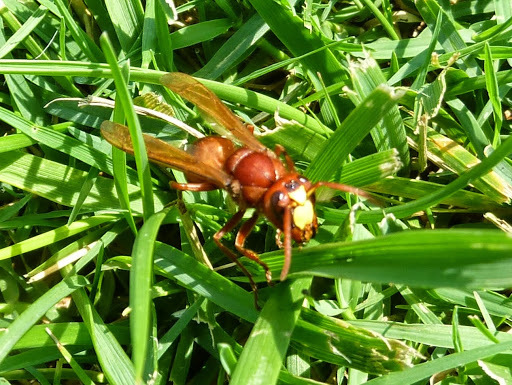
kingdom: Animalia
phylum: Arthropoda
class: Insecta
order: Hymenoptera
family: Vespidae
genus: Vespa
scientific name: Vespa orientalis
